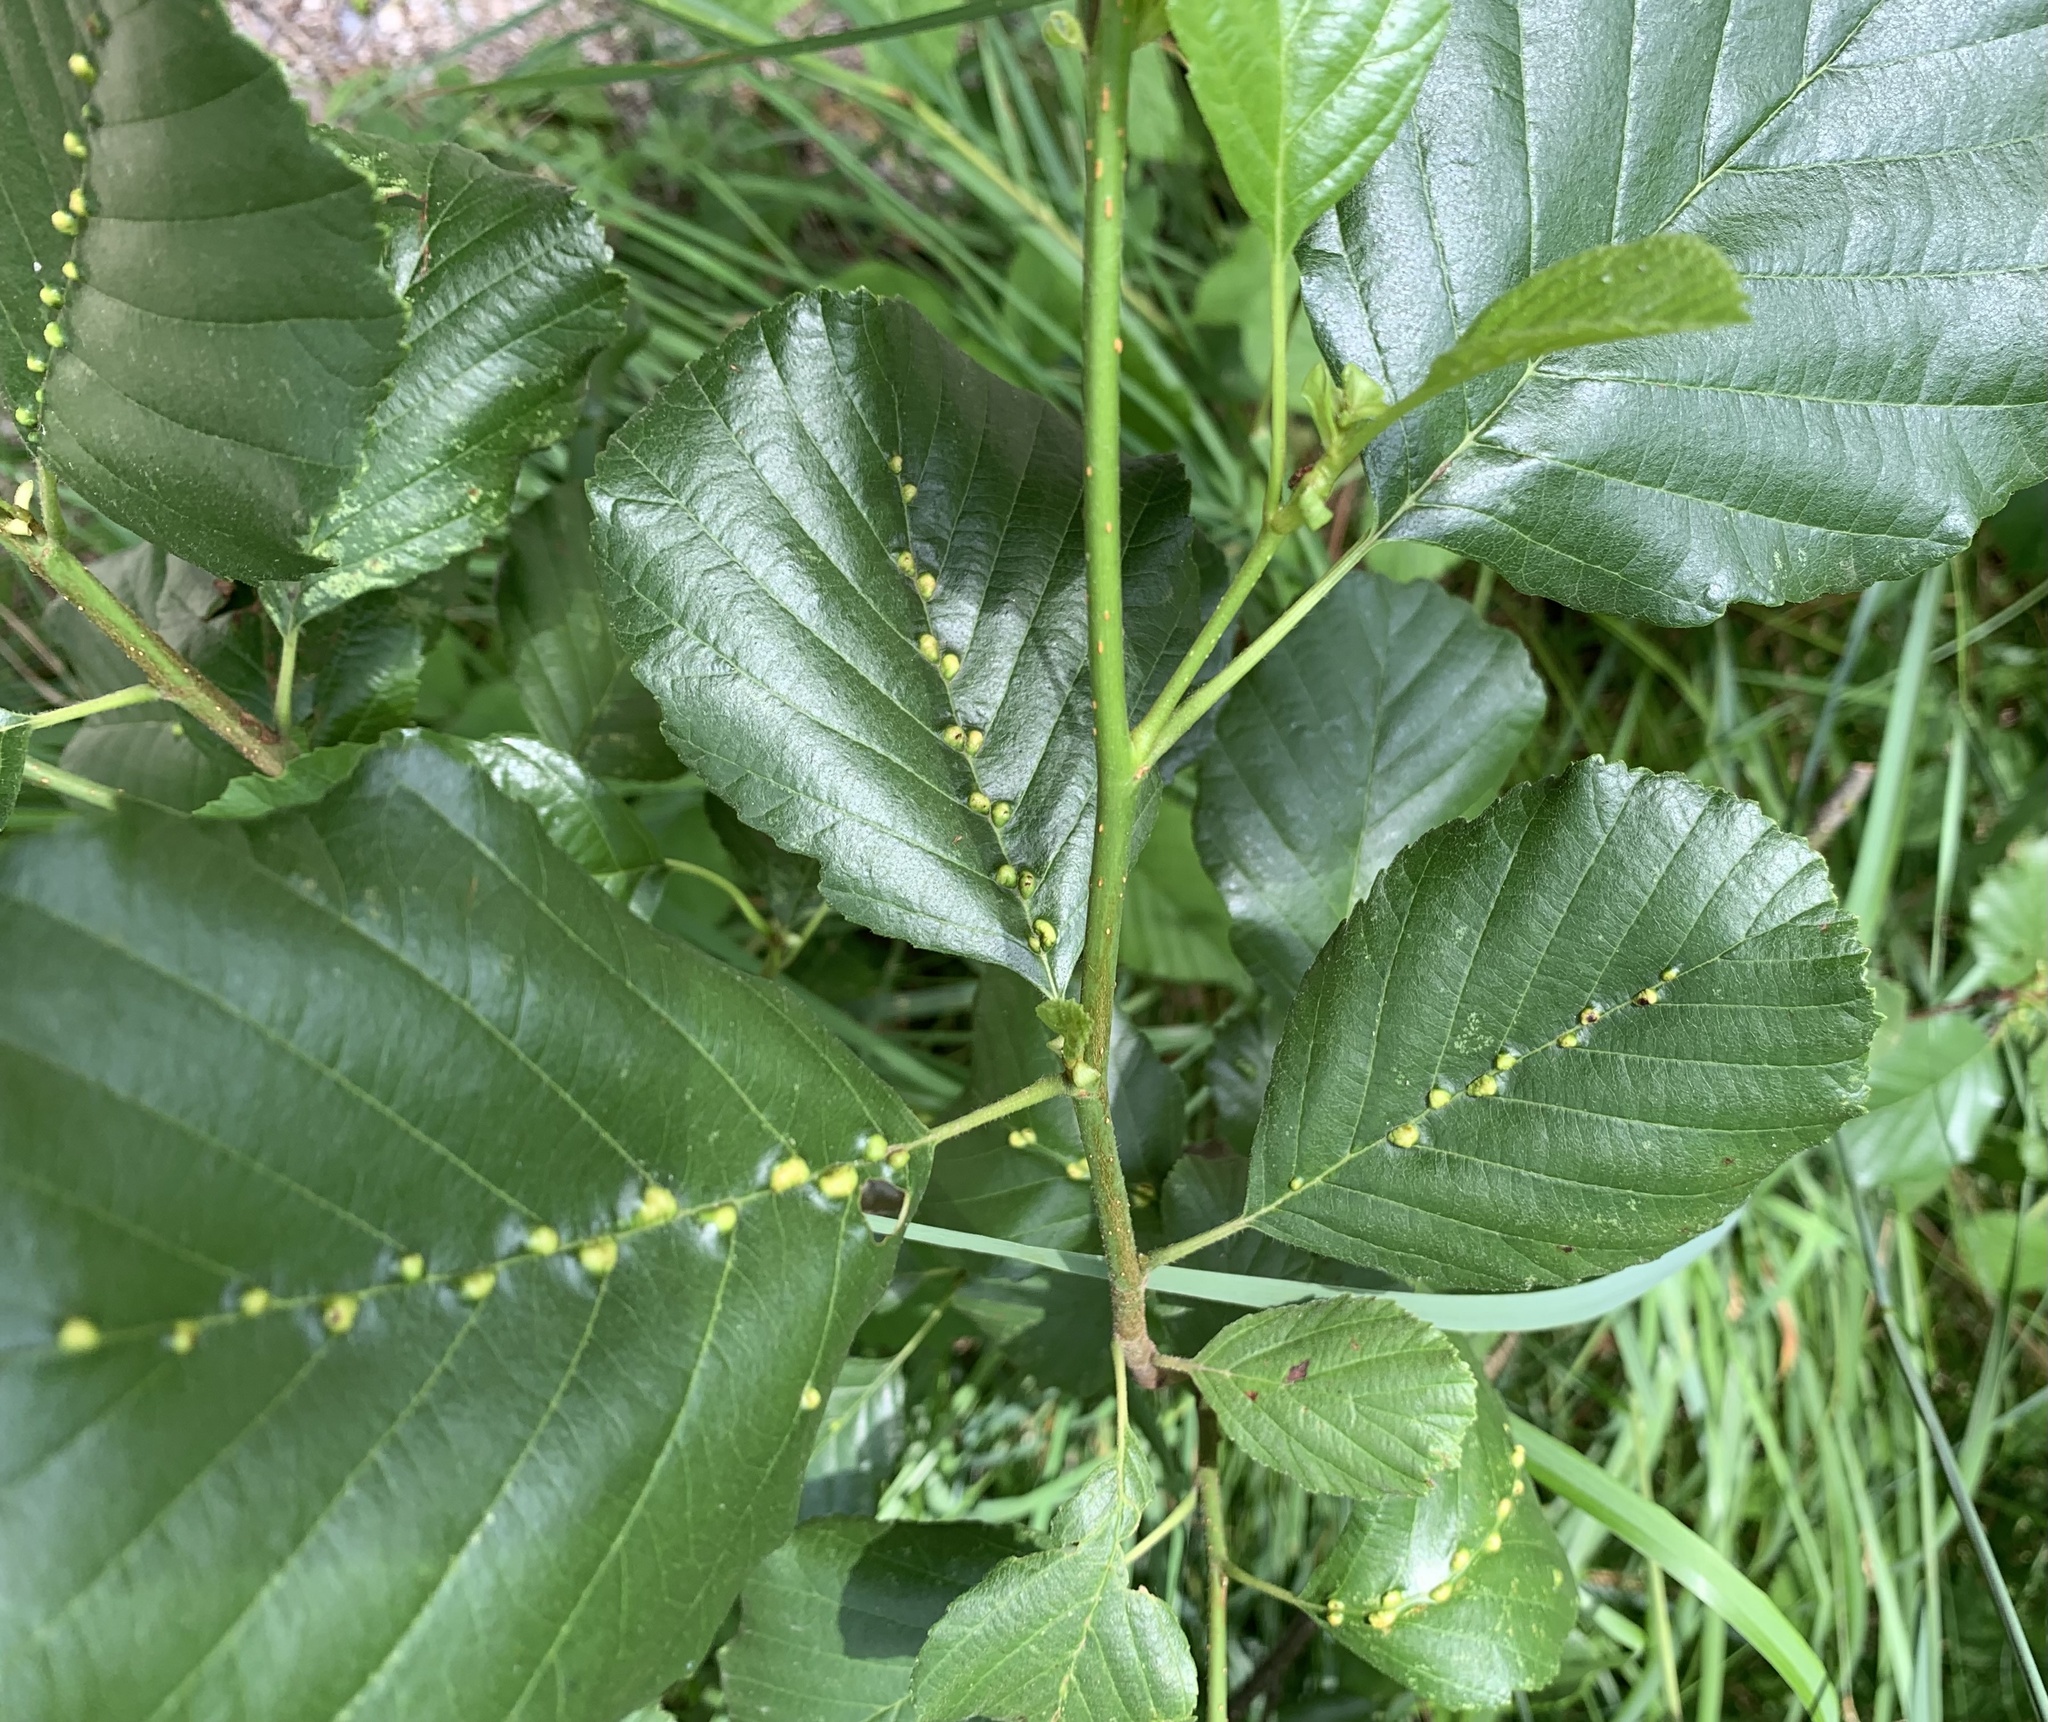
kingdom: Animalia
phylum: Arthropoda
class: Arachnida
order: Trombidiformes
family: Eriophyidae
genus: Eriophyes
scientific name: Eriophyes inangulis
